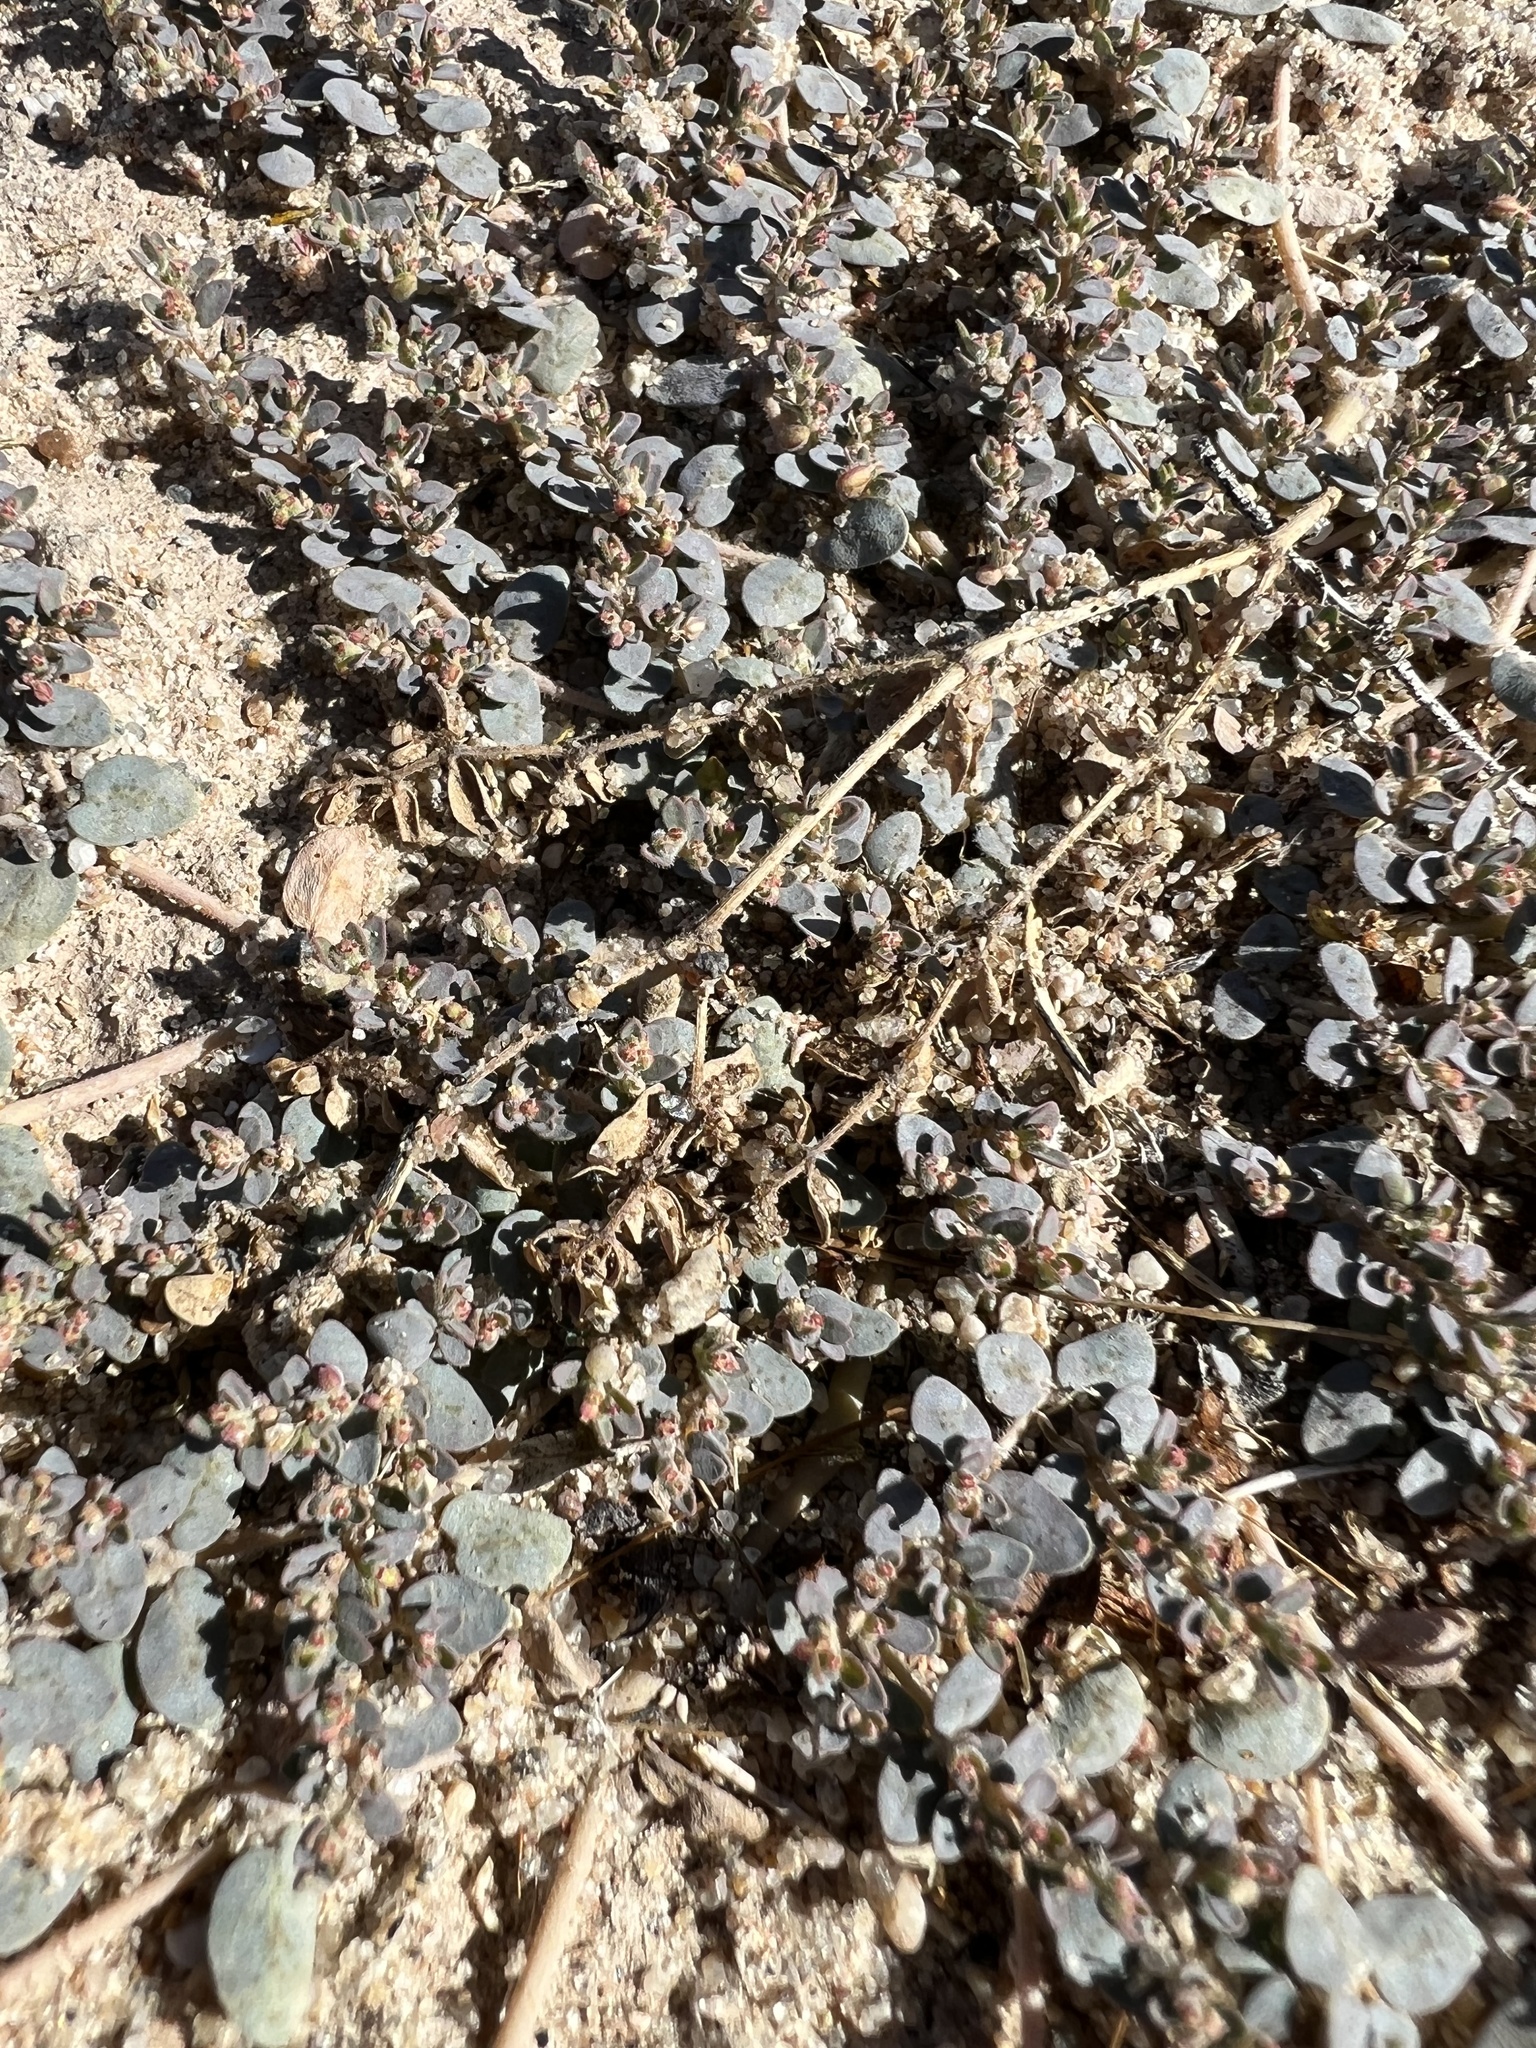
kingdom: Plantae
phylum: Tracheophyta
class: Magnoliopsida
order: Malpighiales
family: Euphorbiaceae
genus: Euphorbia
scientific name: Euphorbia micromera
